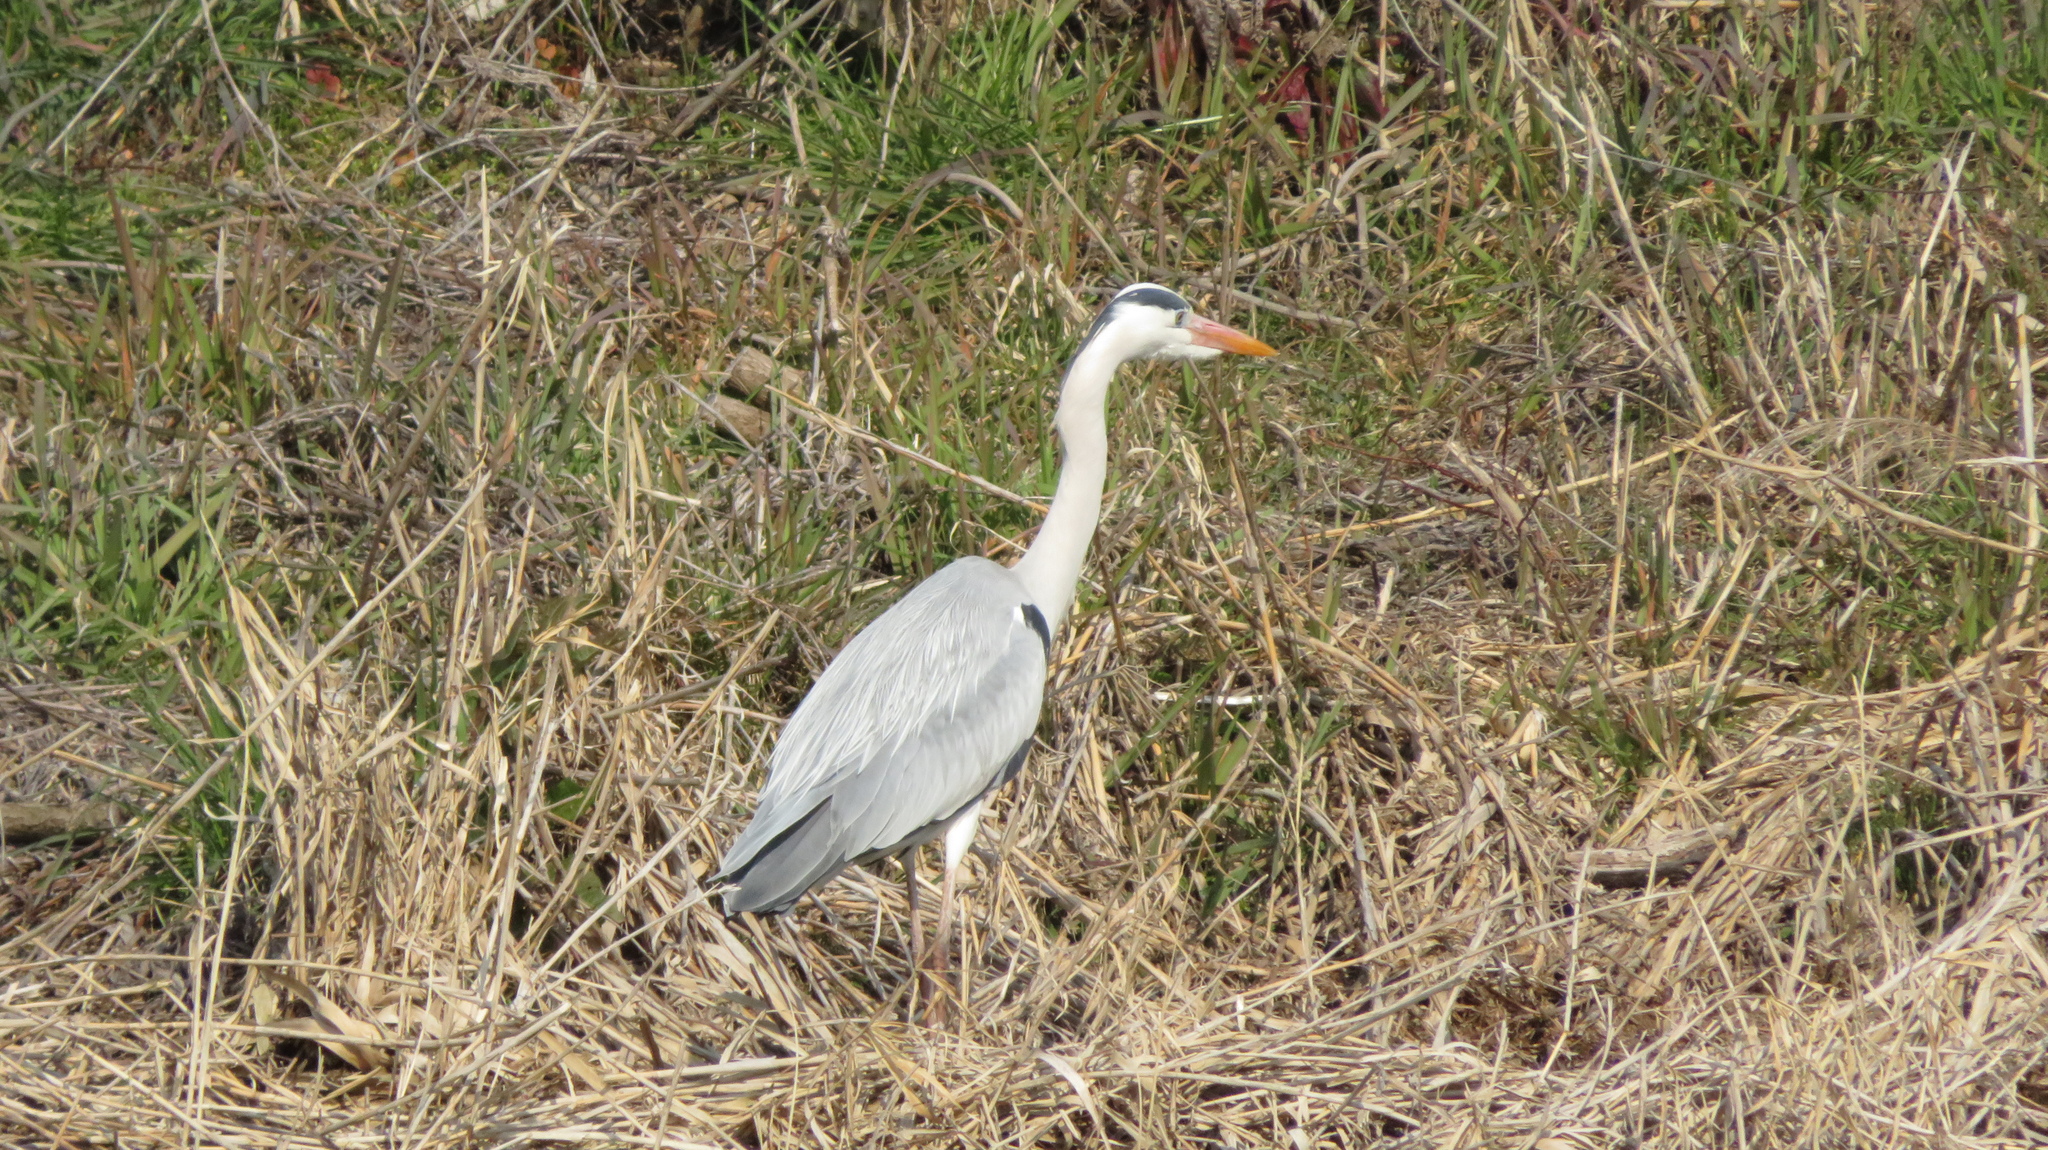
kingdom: Animalia
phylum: Chordata
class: Aves
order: Pelecaniformes
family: Ardeidae
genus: Ardea
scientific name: Ardea cinerea
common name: Grey heron
